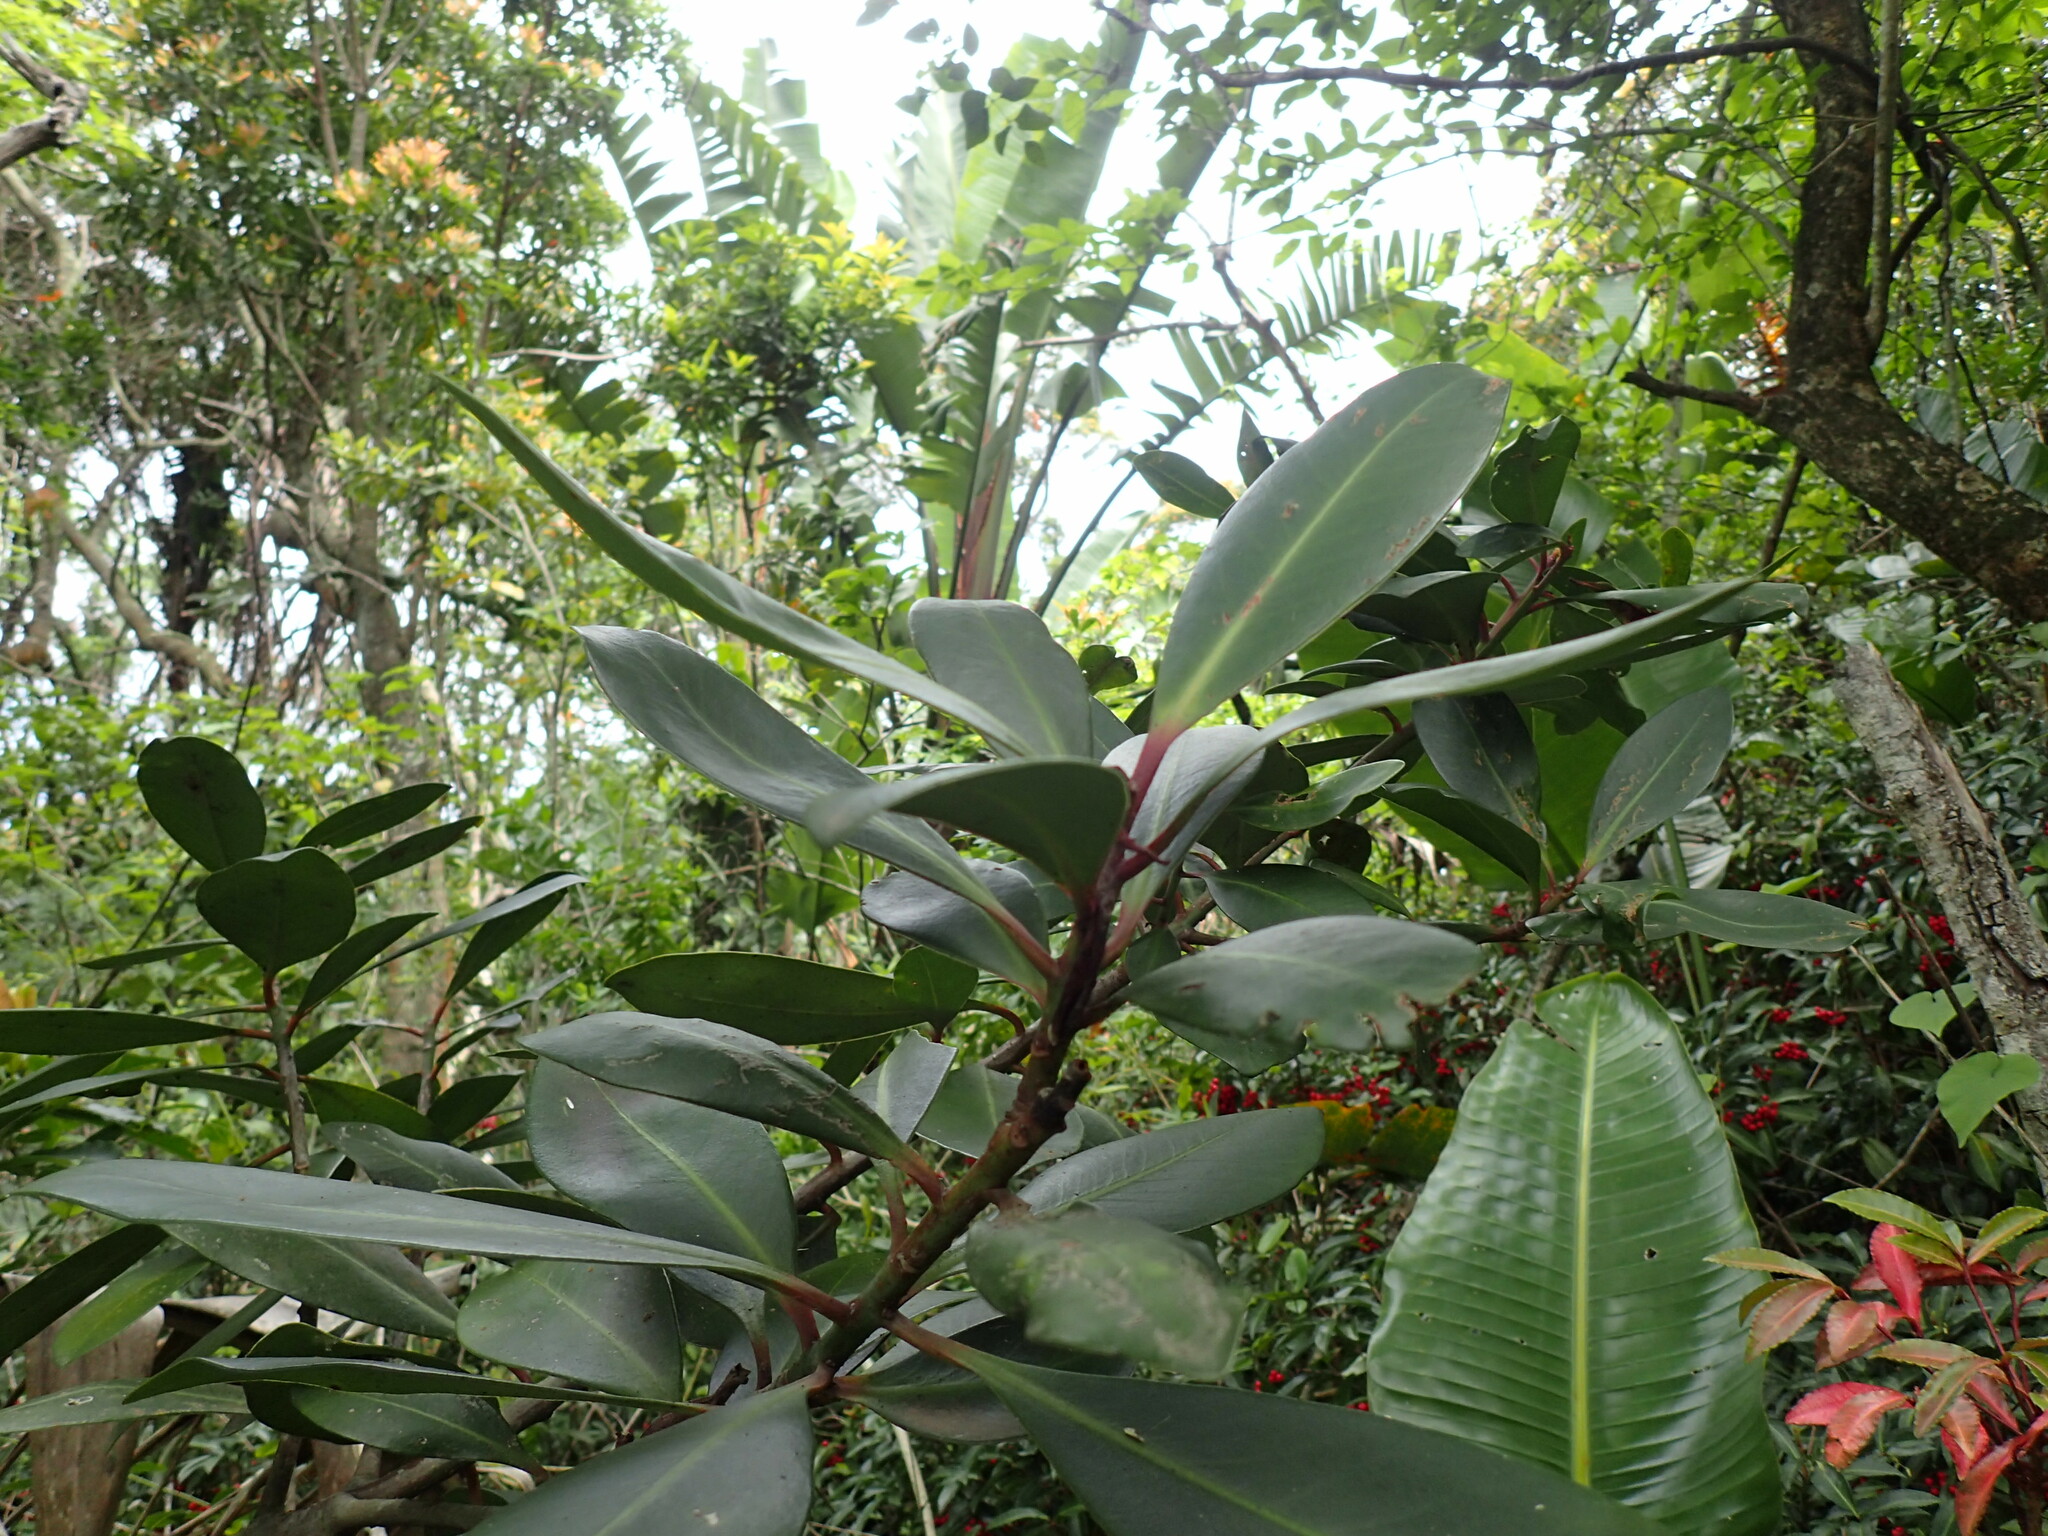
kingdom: Plantae
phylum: Tracheophyta
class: Magnoliopsida
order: Ericales
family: Primulaceae
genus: Myrsine
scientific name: Myrsine melanophloeos
